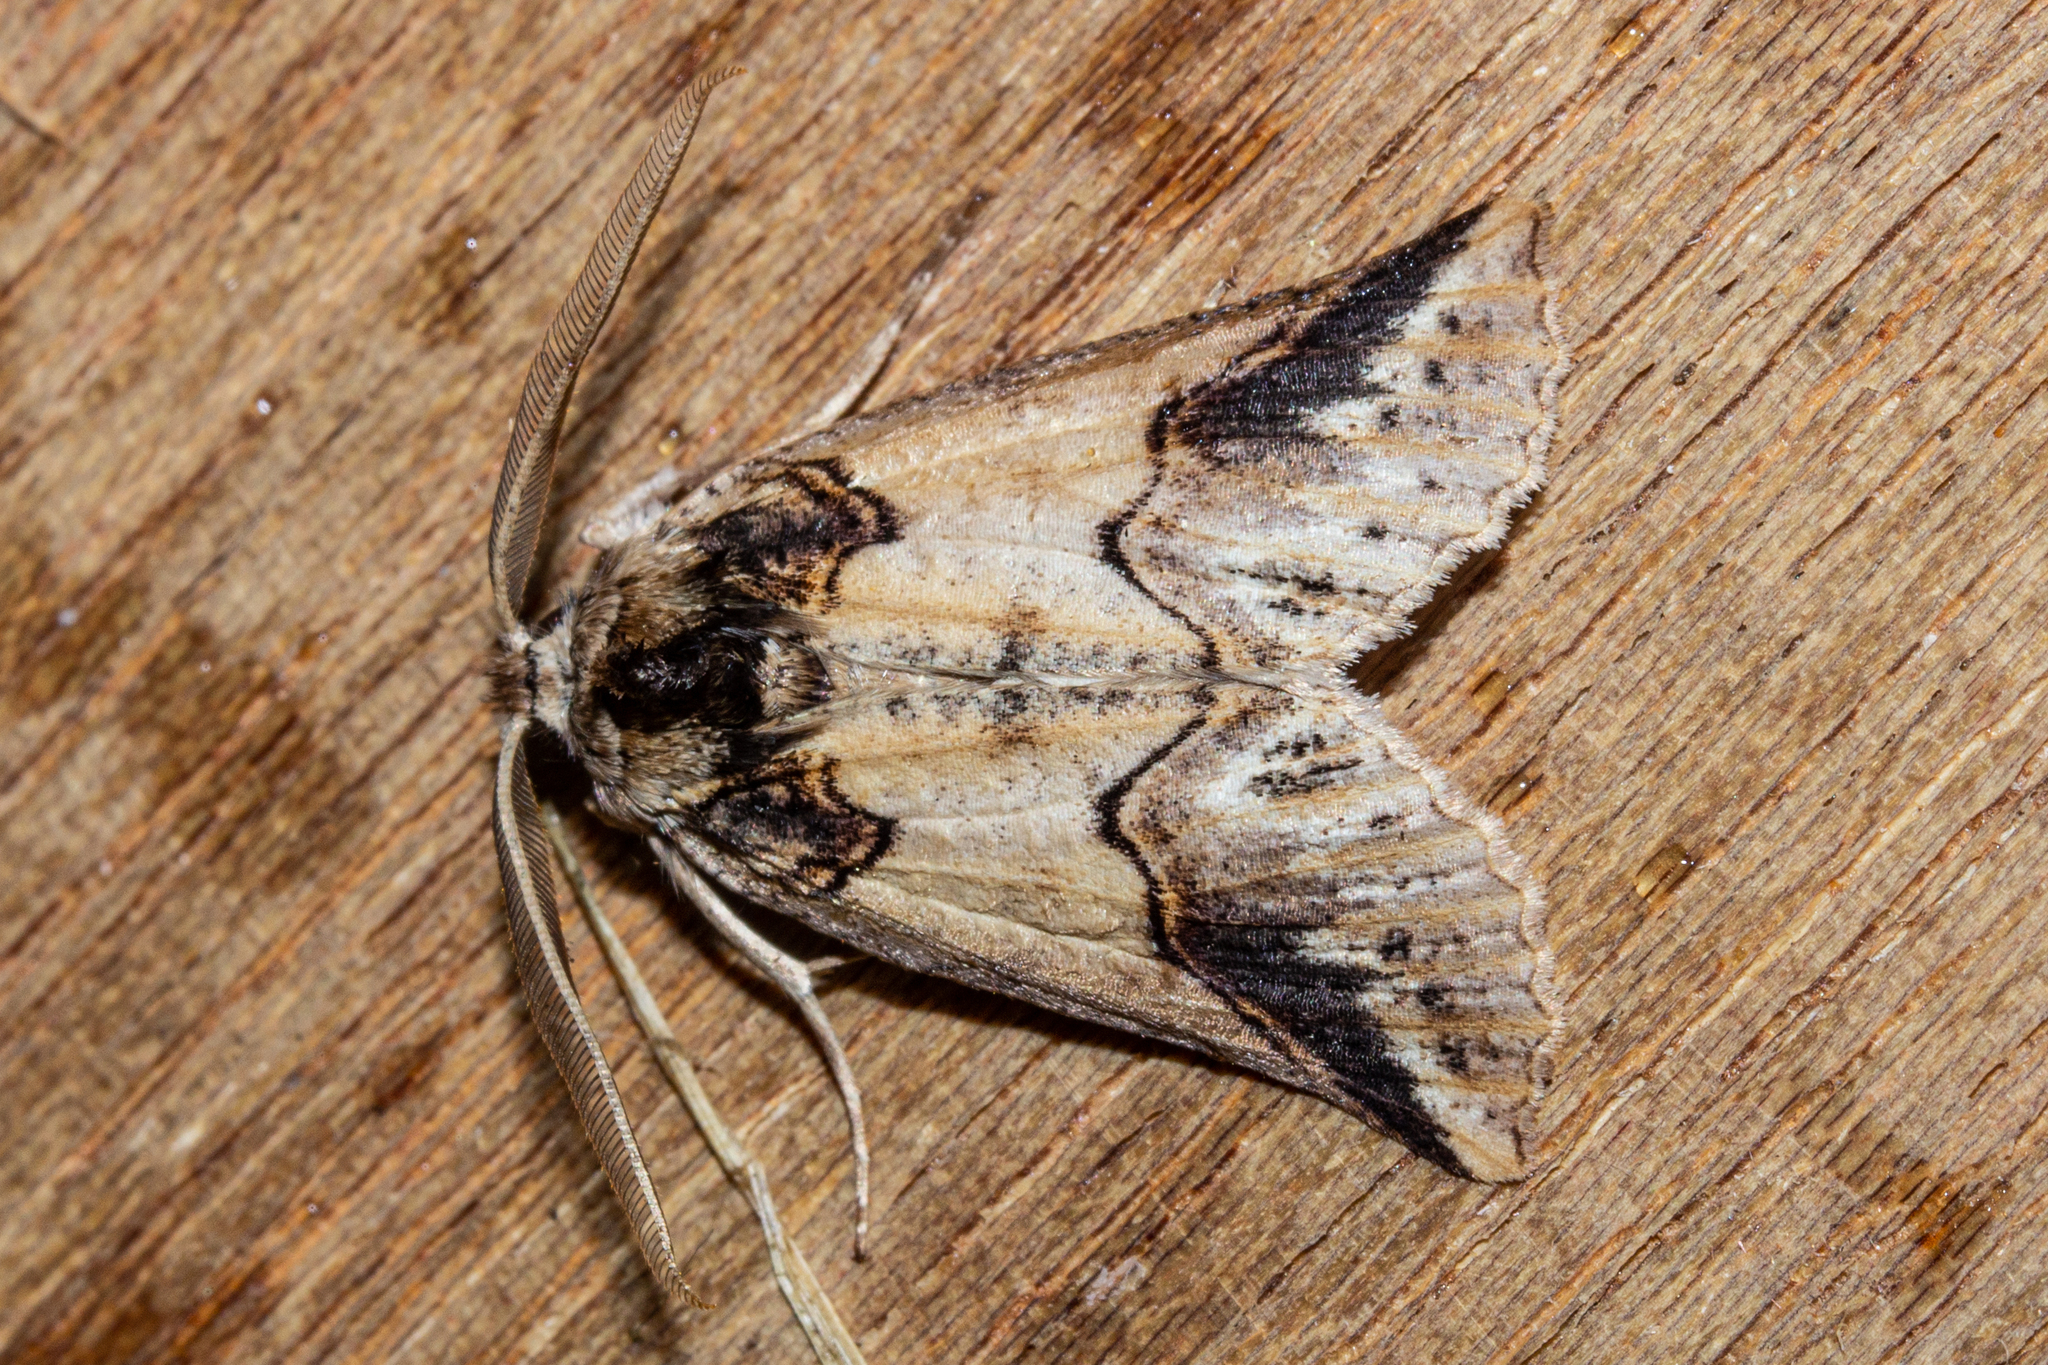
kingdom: Animalia
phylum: Arthropoda
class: Insecta
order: Lepidoptera
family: Geometridae
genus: Declana
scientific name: Declana
